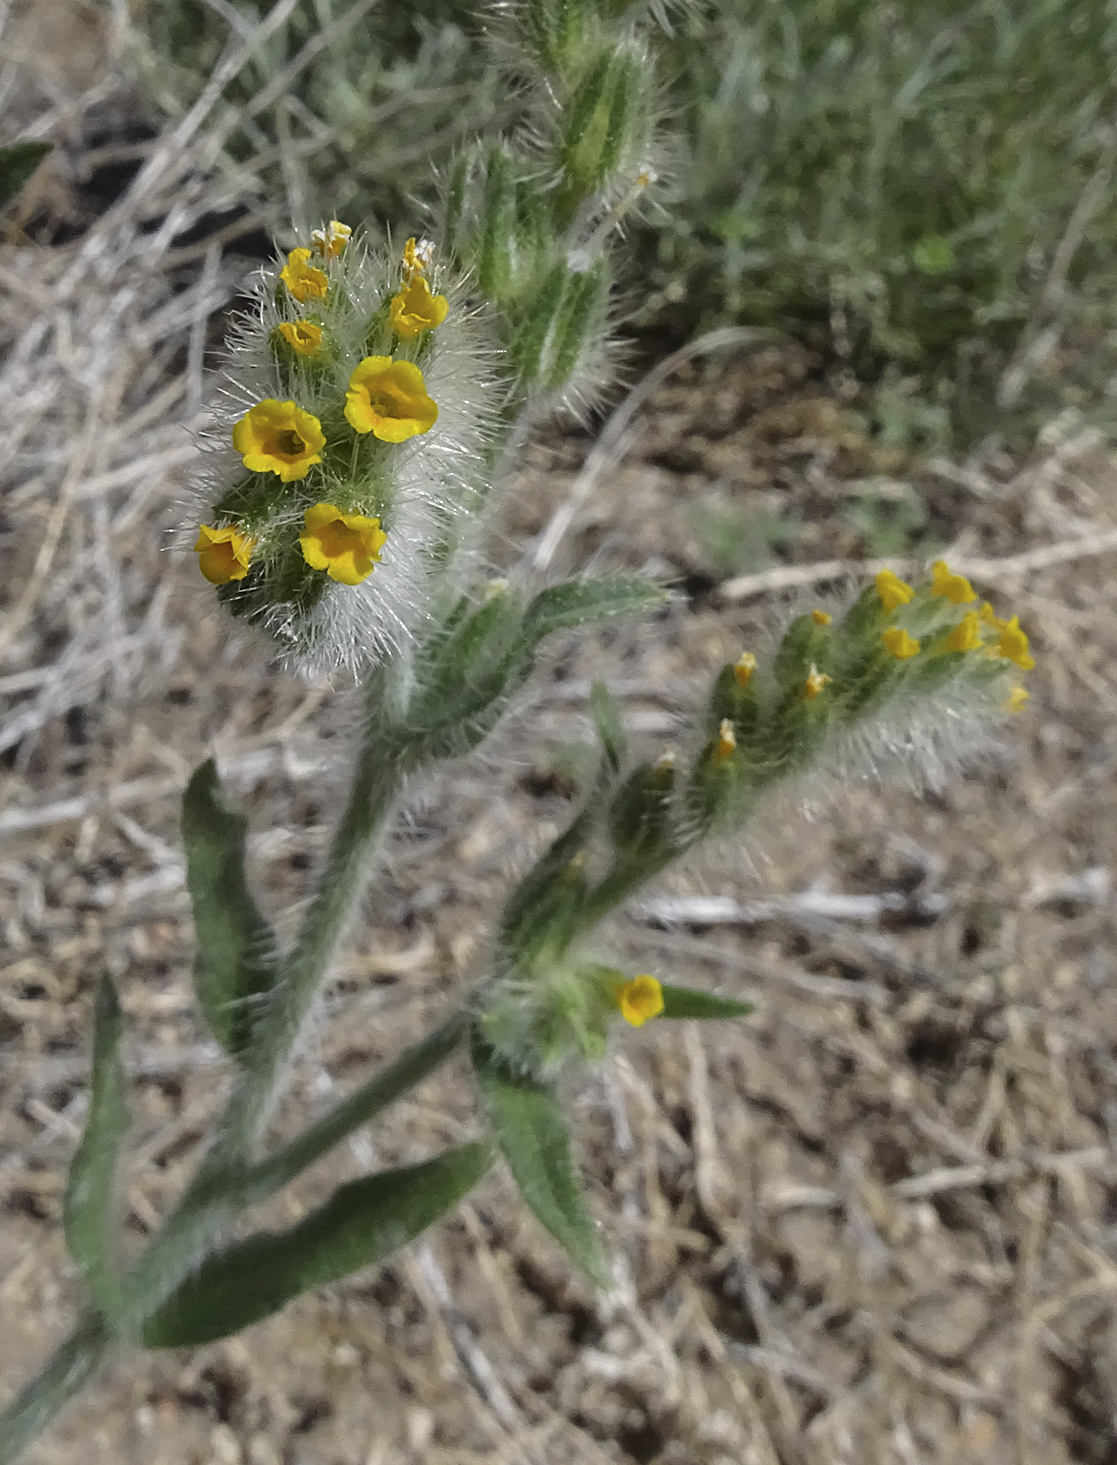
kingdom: Plantae
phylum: Tracheophyta
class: Magnoliopsida
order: Boraginales
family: Boraginaceae
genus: Amsinckia
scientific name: Amsinckia tessellata
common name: Tessellate fiddleneck
